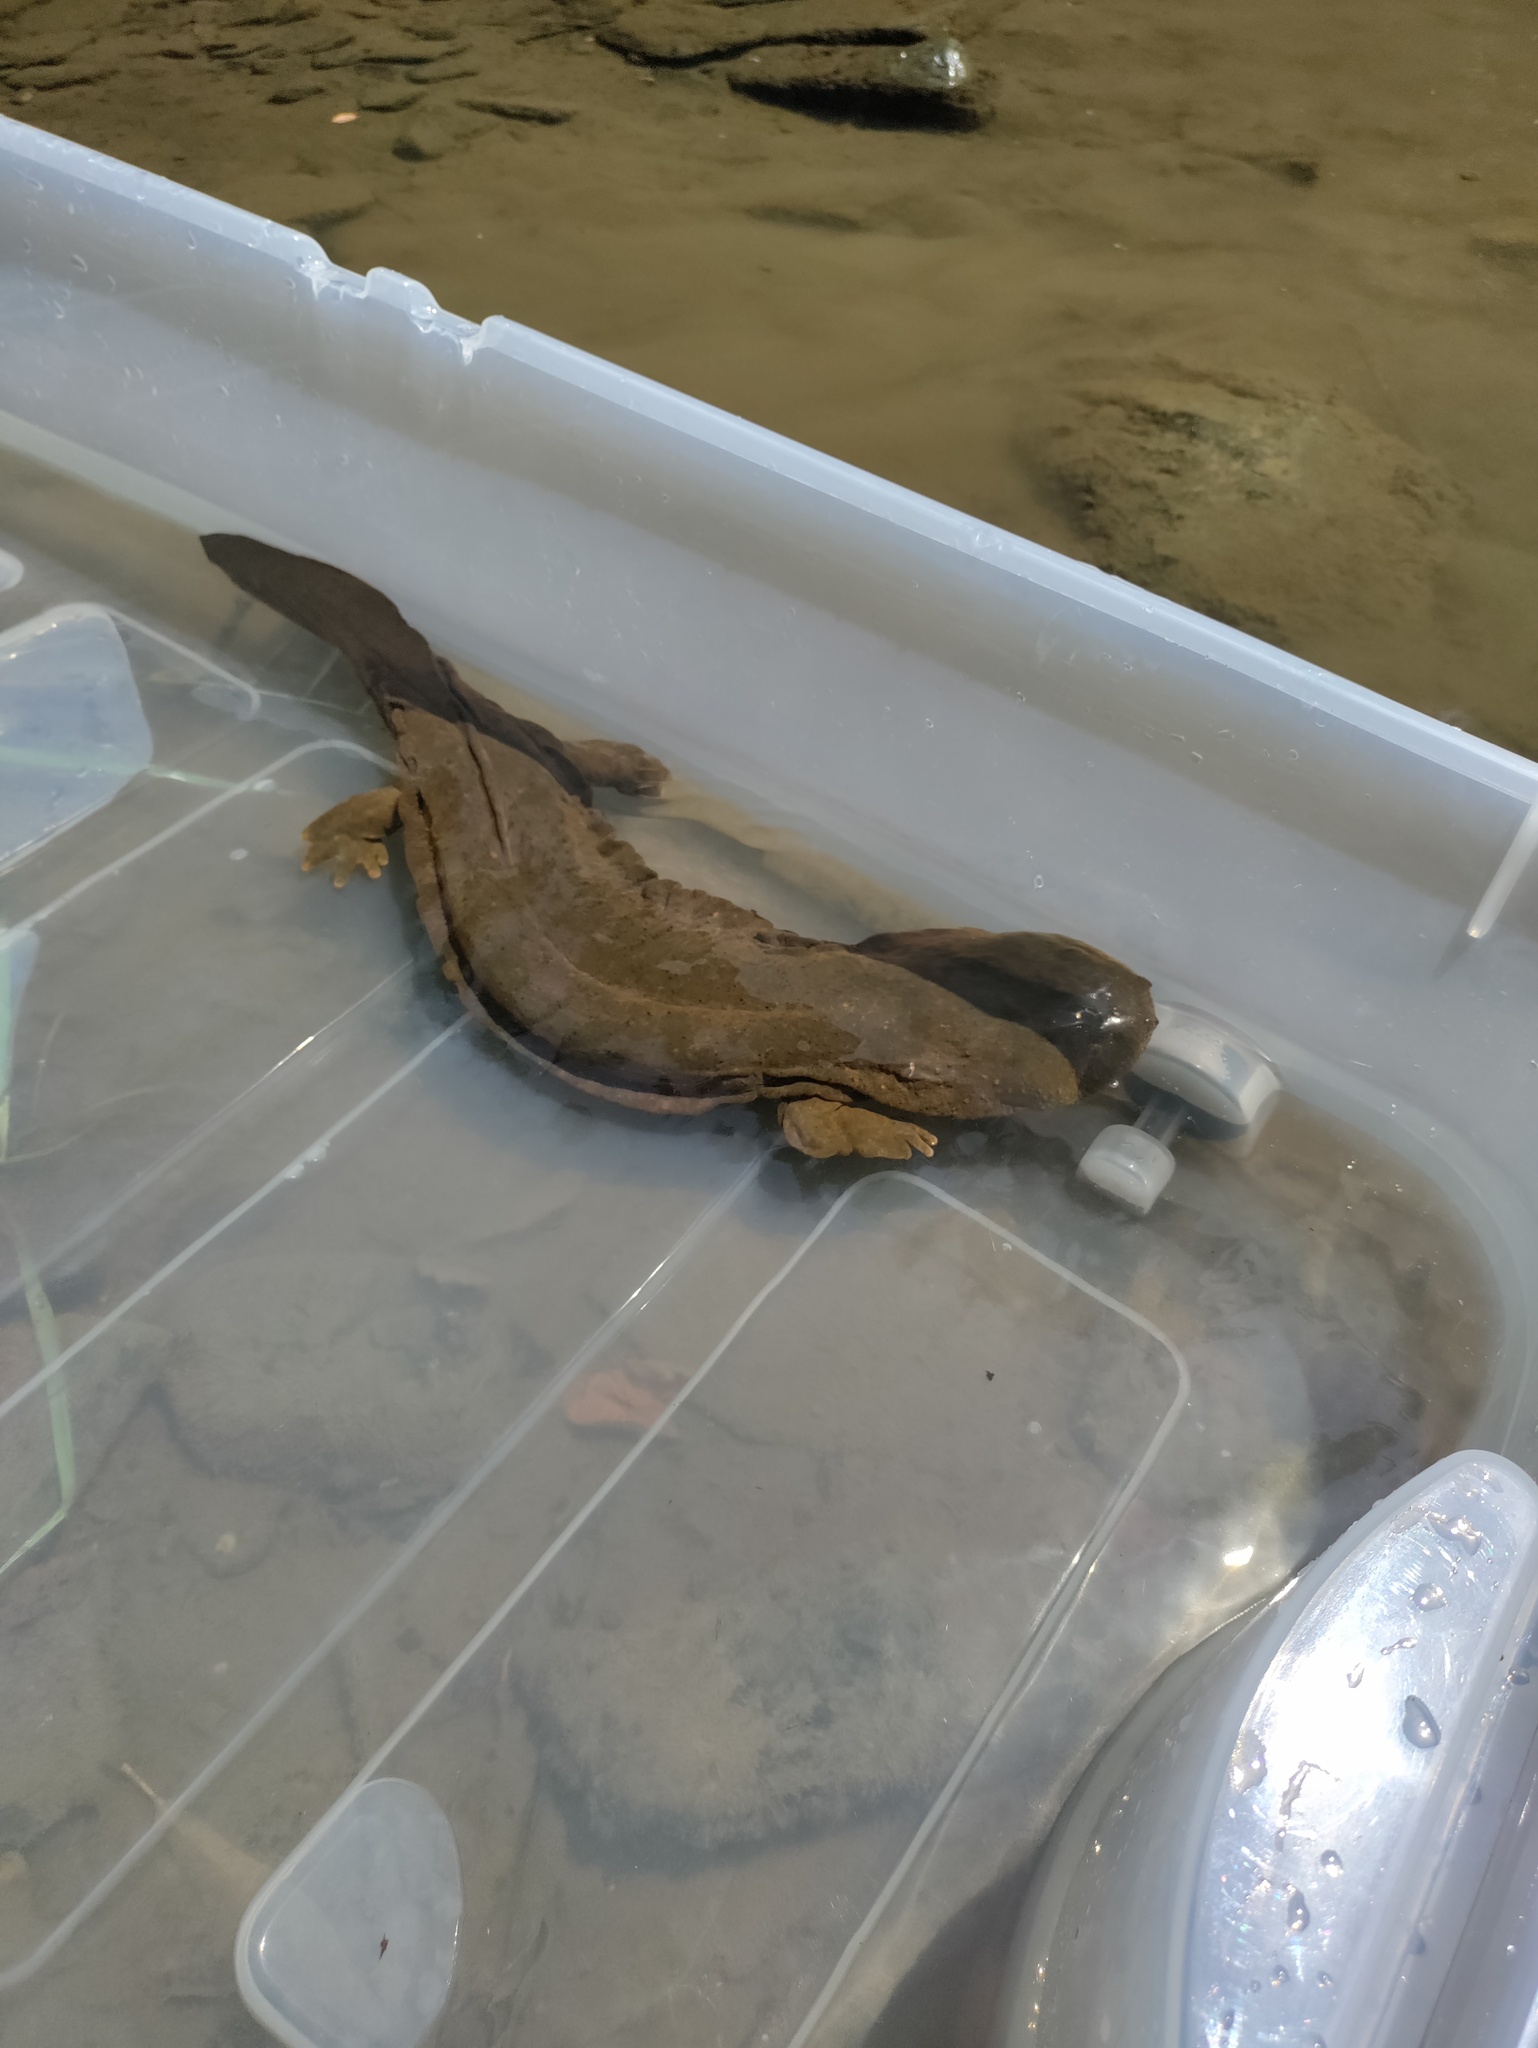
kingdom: Animalia
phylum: Chordata
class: Amphibia
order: Caudata
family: Cryptobranchidae
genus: Cryptobranchus
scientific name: Cryptobranchus alleganiensis
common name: Hellbender
